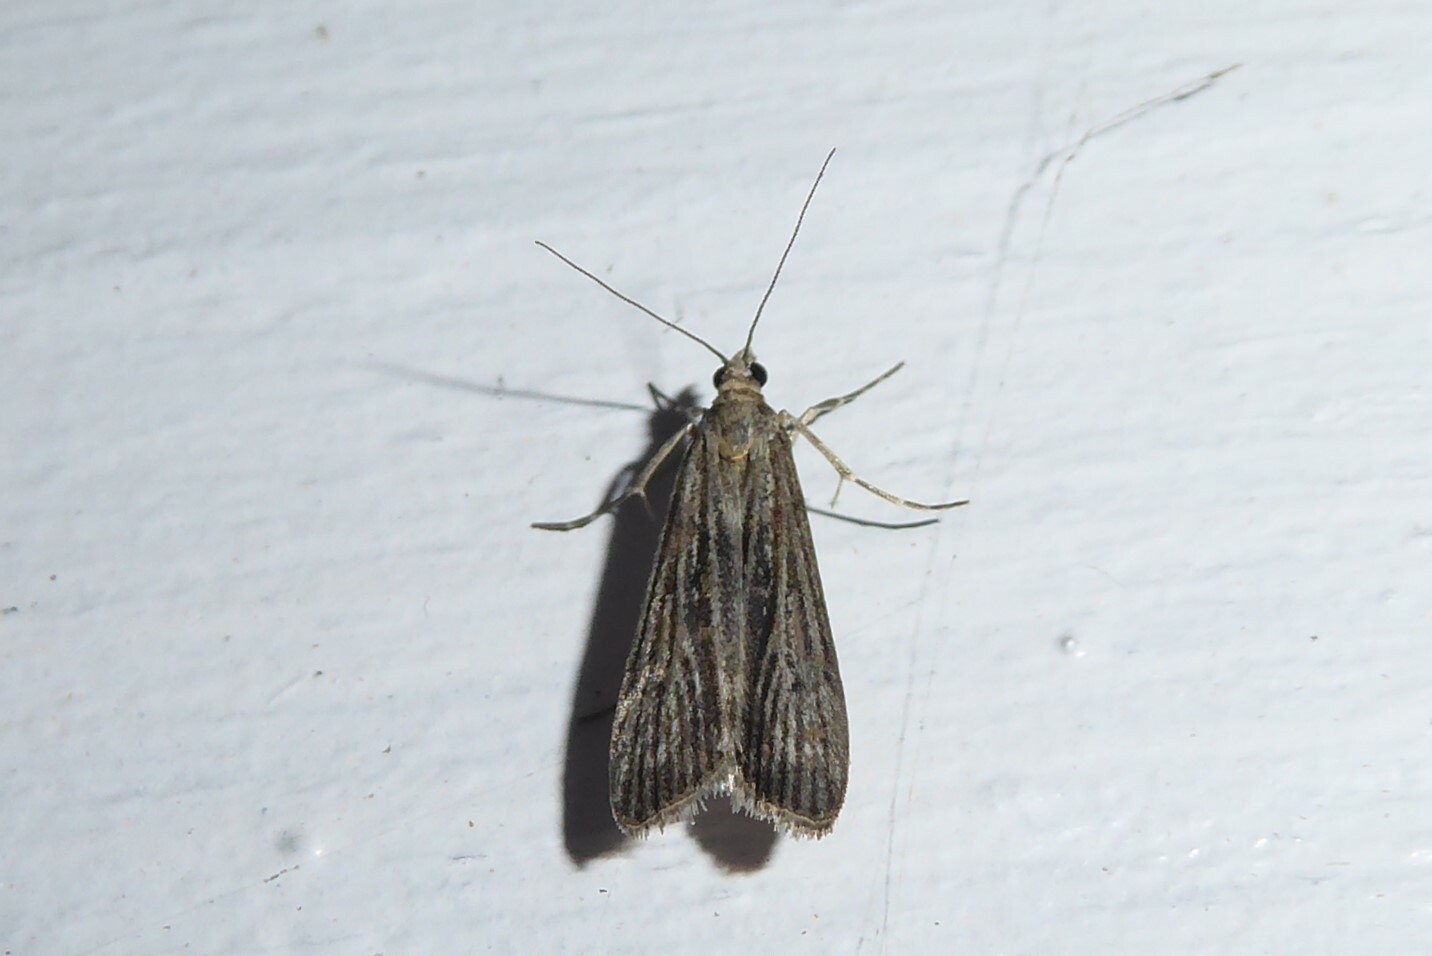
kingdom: Animalia
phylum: Arthropoda
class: Insecta
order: Lepidoptera
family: Crambidae
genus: Eudonia
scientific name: Eudonia atmogramma
